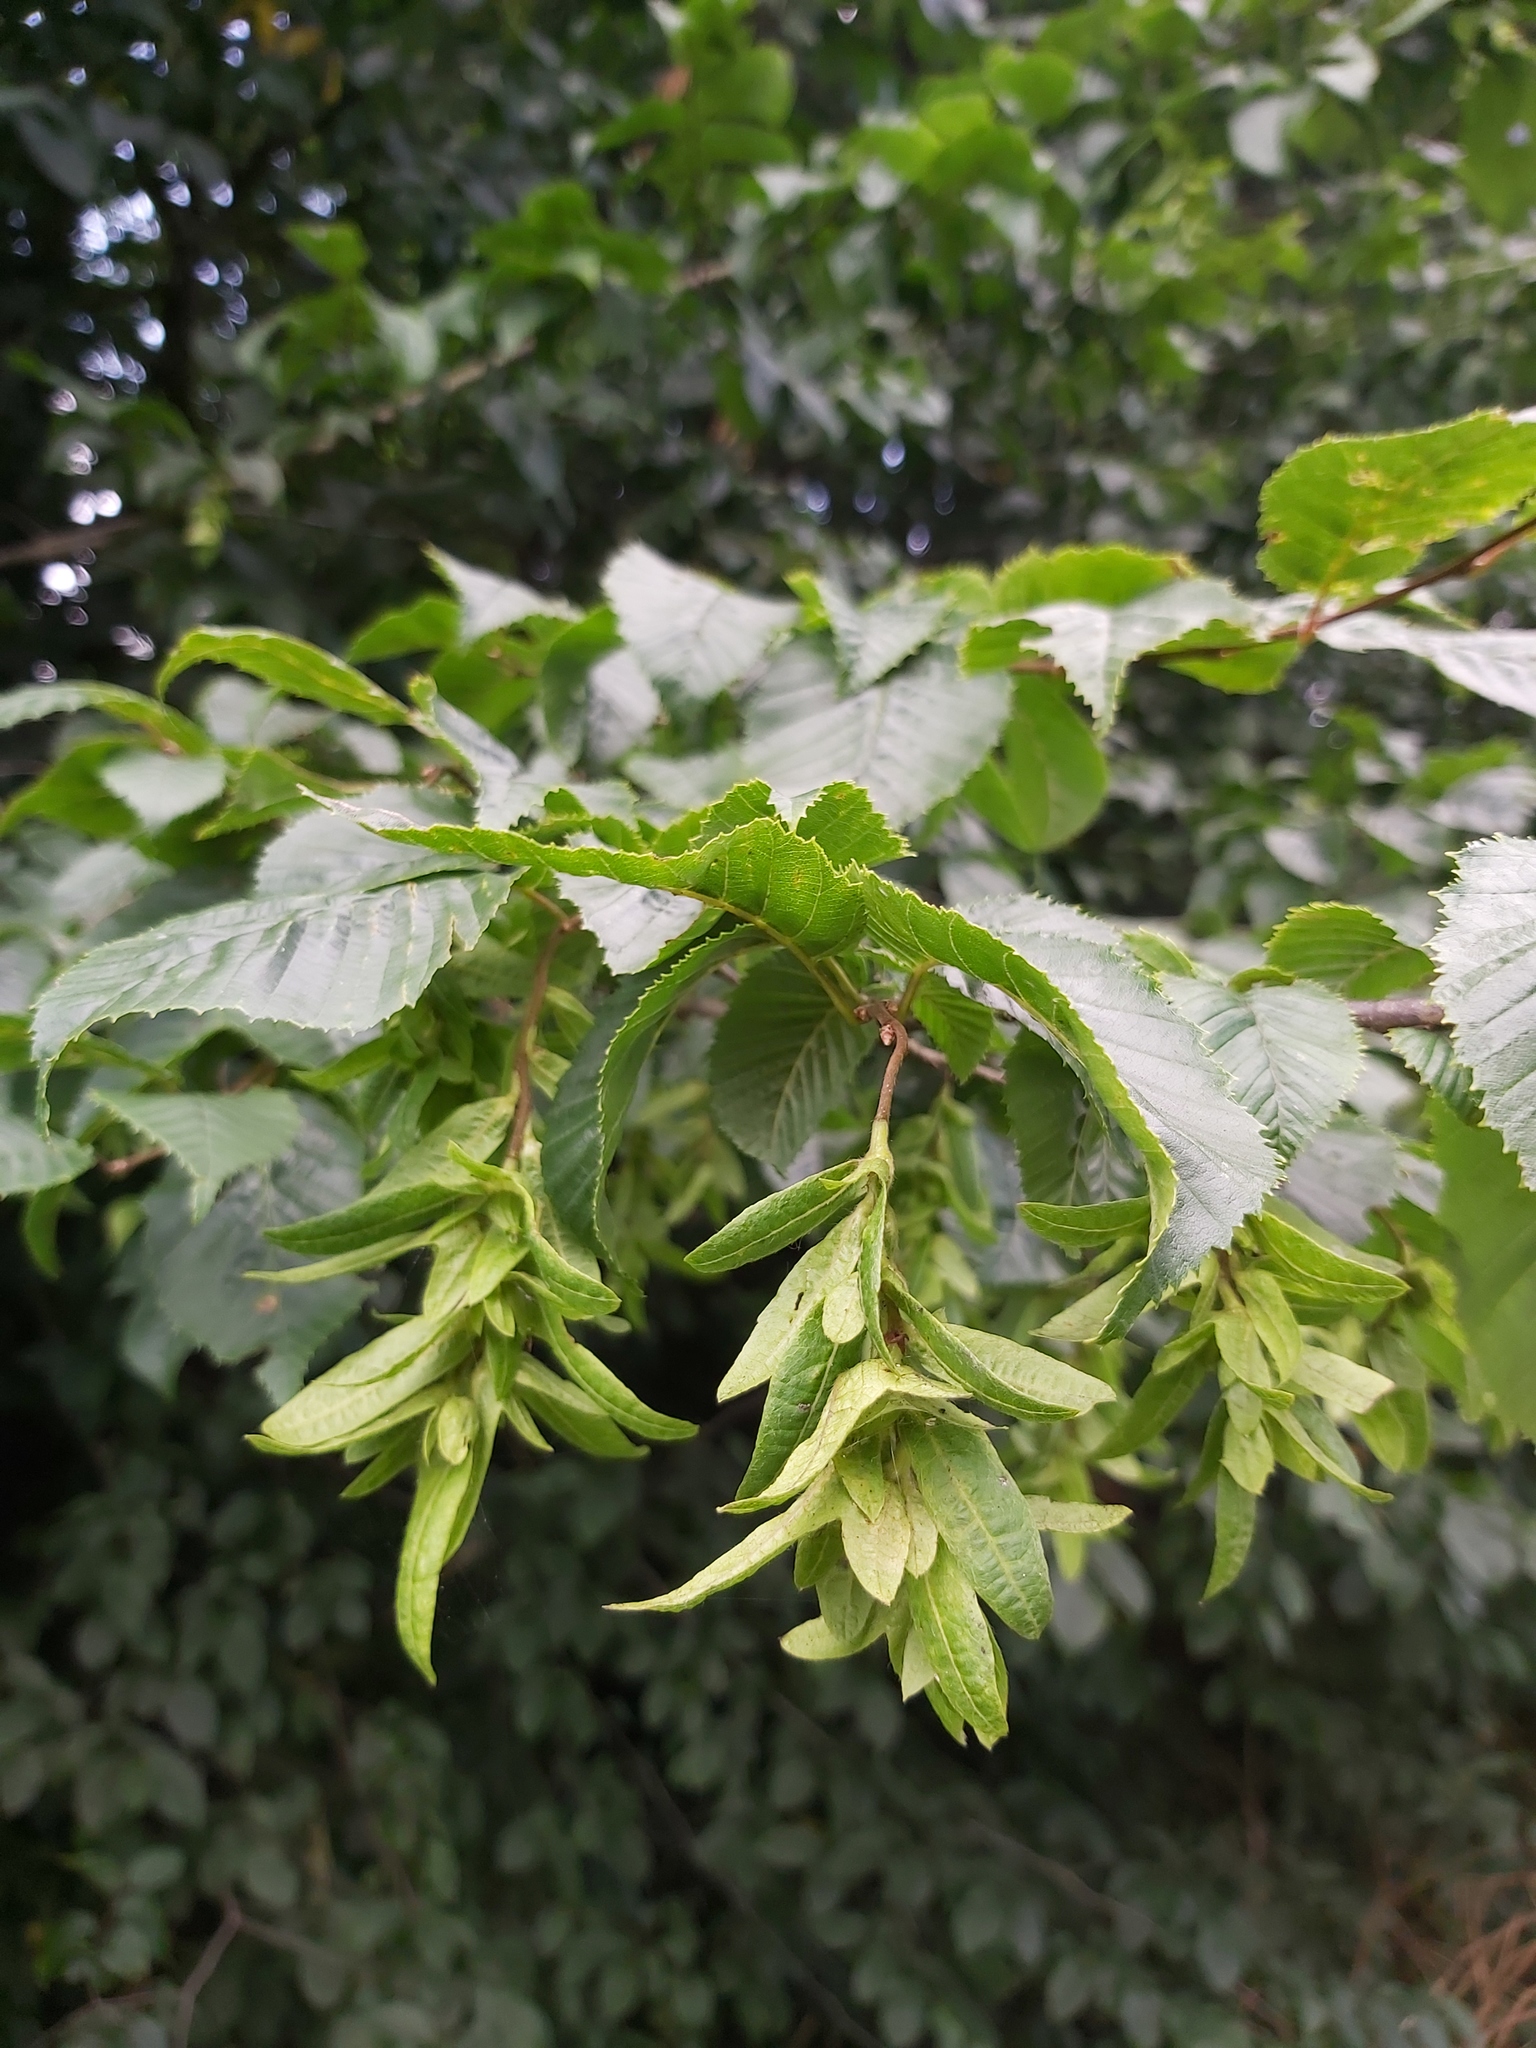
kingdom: Plantae
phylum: Tracheophyta
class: Magnoliopsida
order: Fagales
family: Betulaceae
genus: Carpinus
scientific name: Carpinus betulus
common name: Hornbeam
